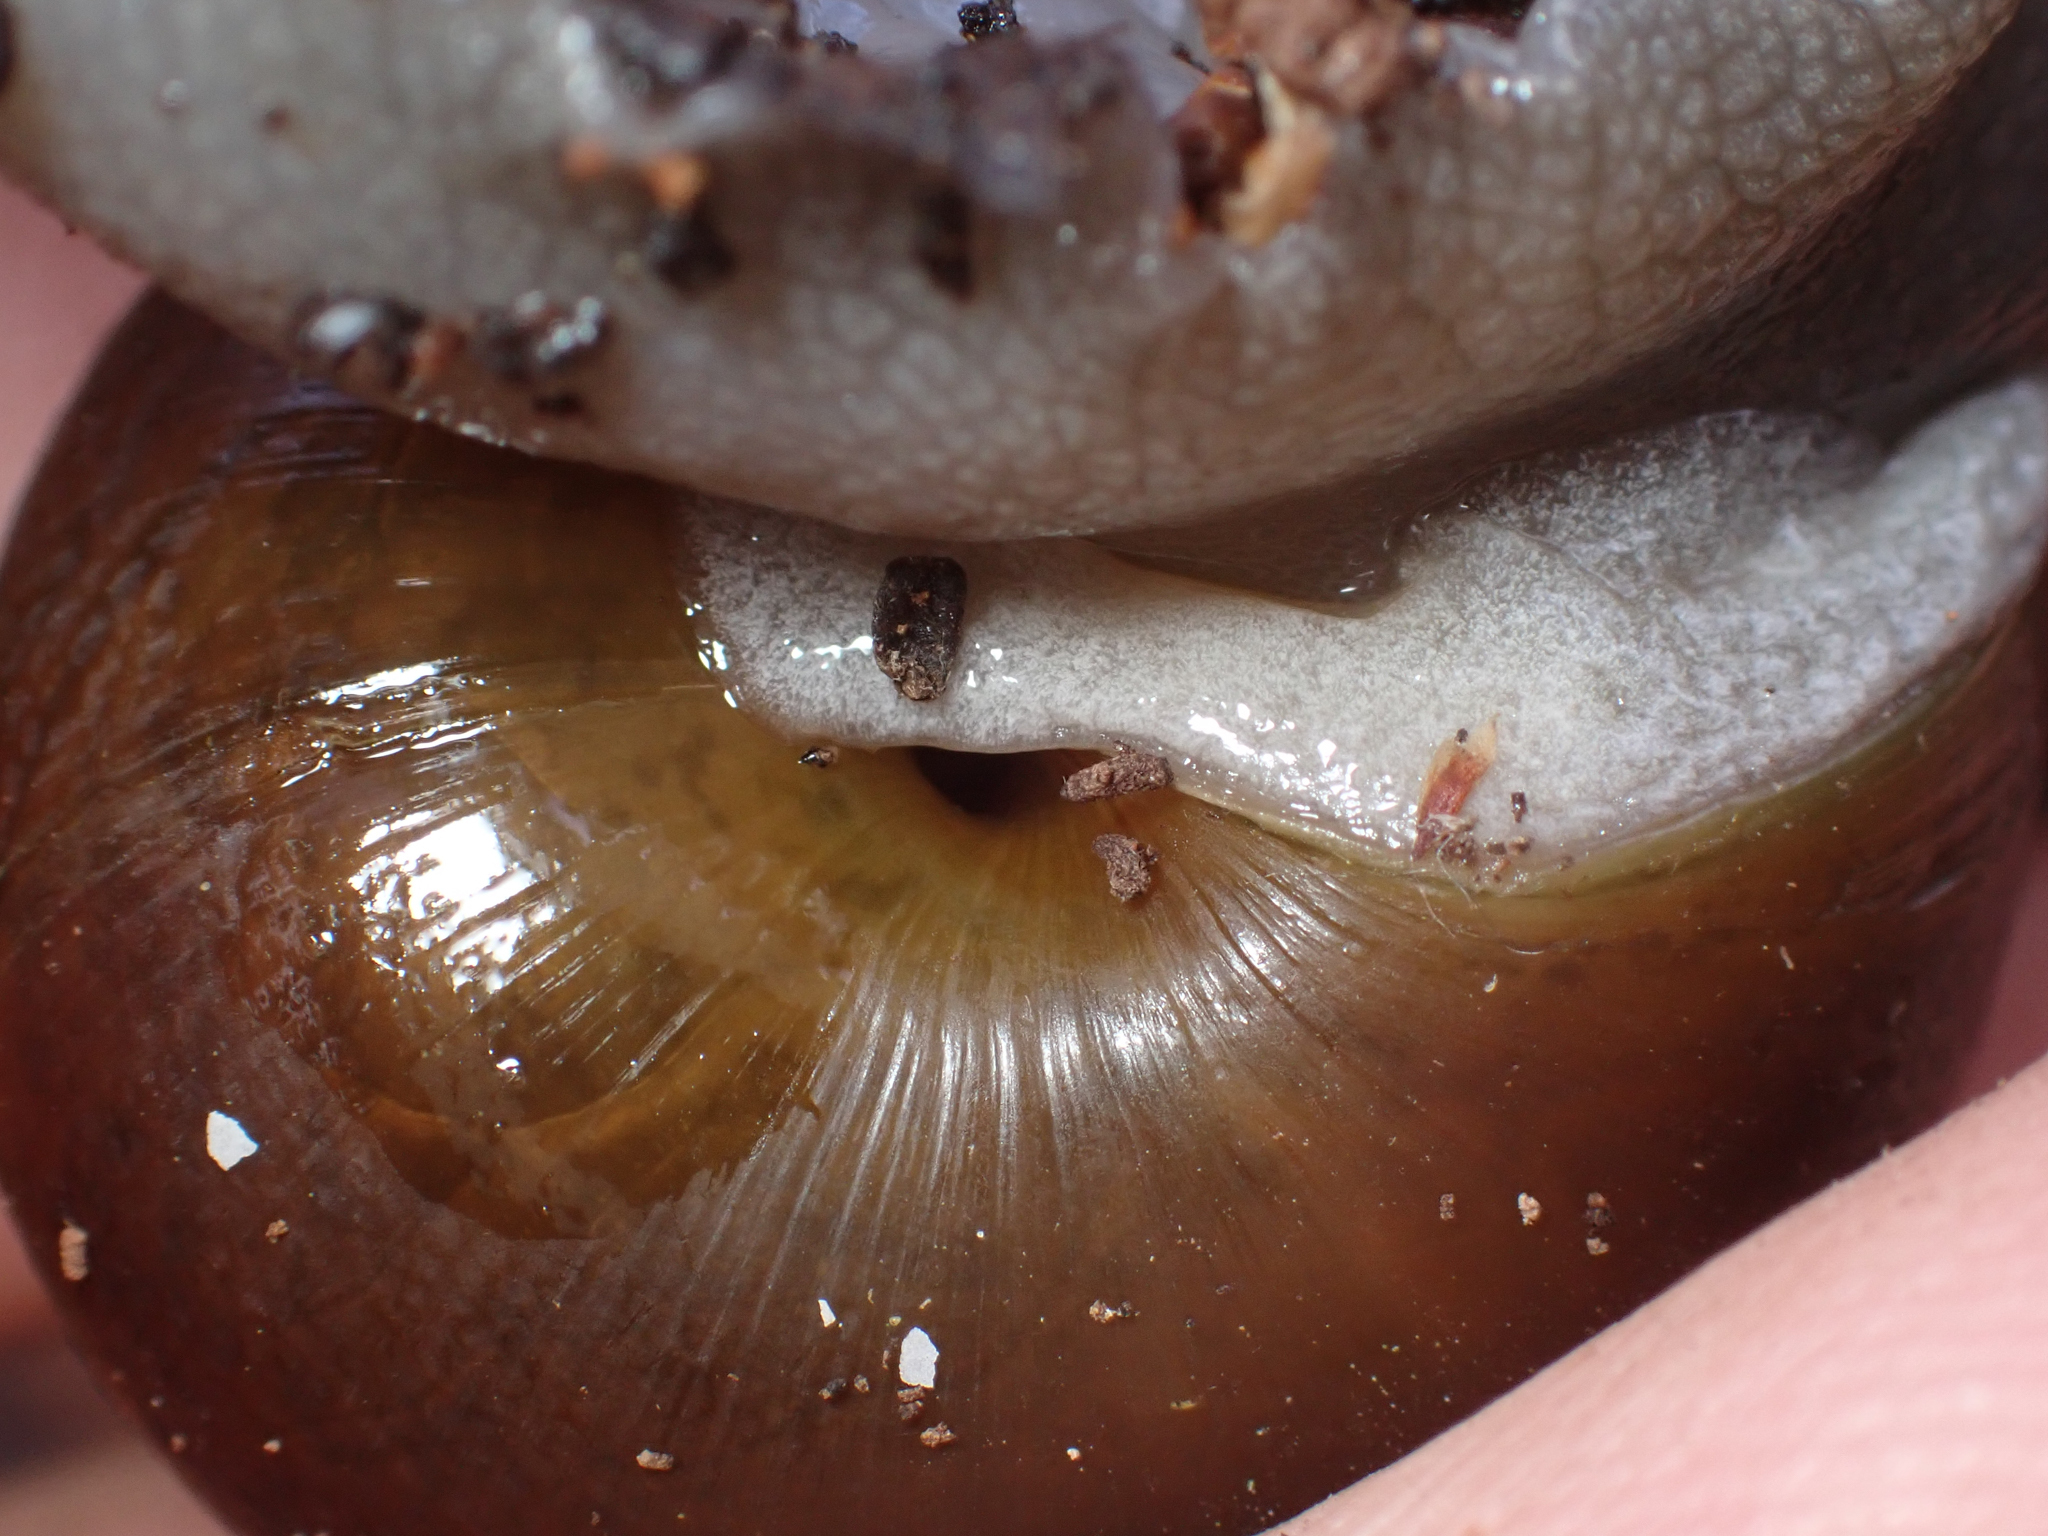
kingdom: Animalia
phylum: Mollusca
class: Gastropoda
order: Stylommatophora
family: Xanthonychidae
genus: Helminthoglypta
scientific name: Helminthoglypta tudiculata
